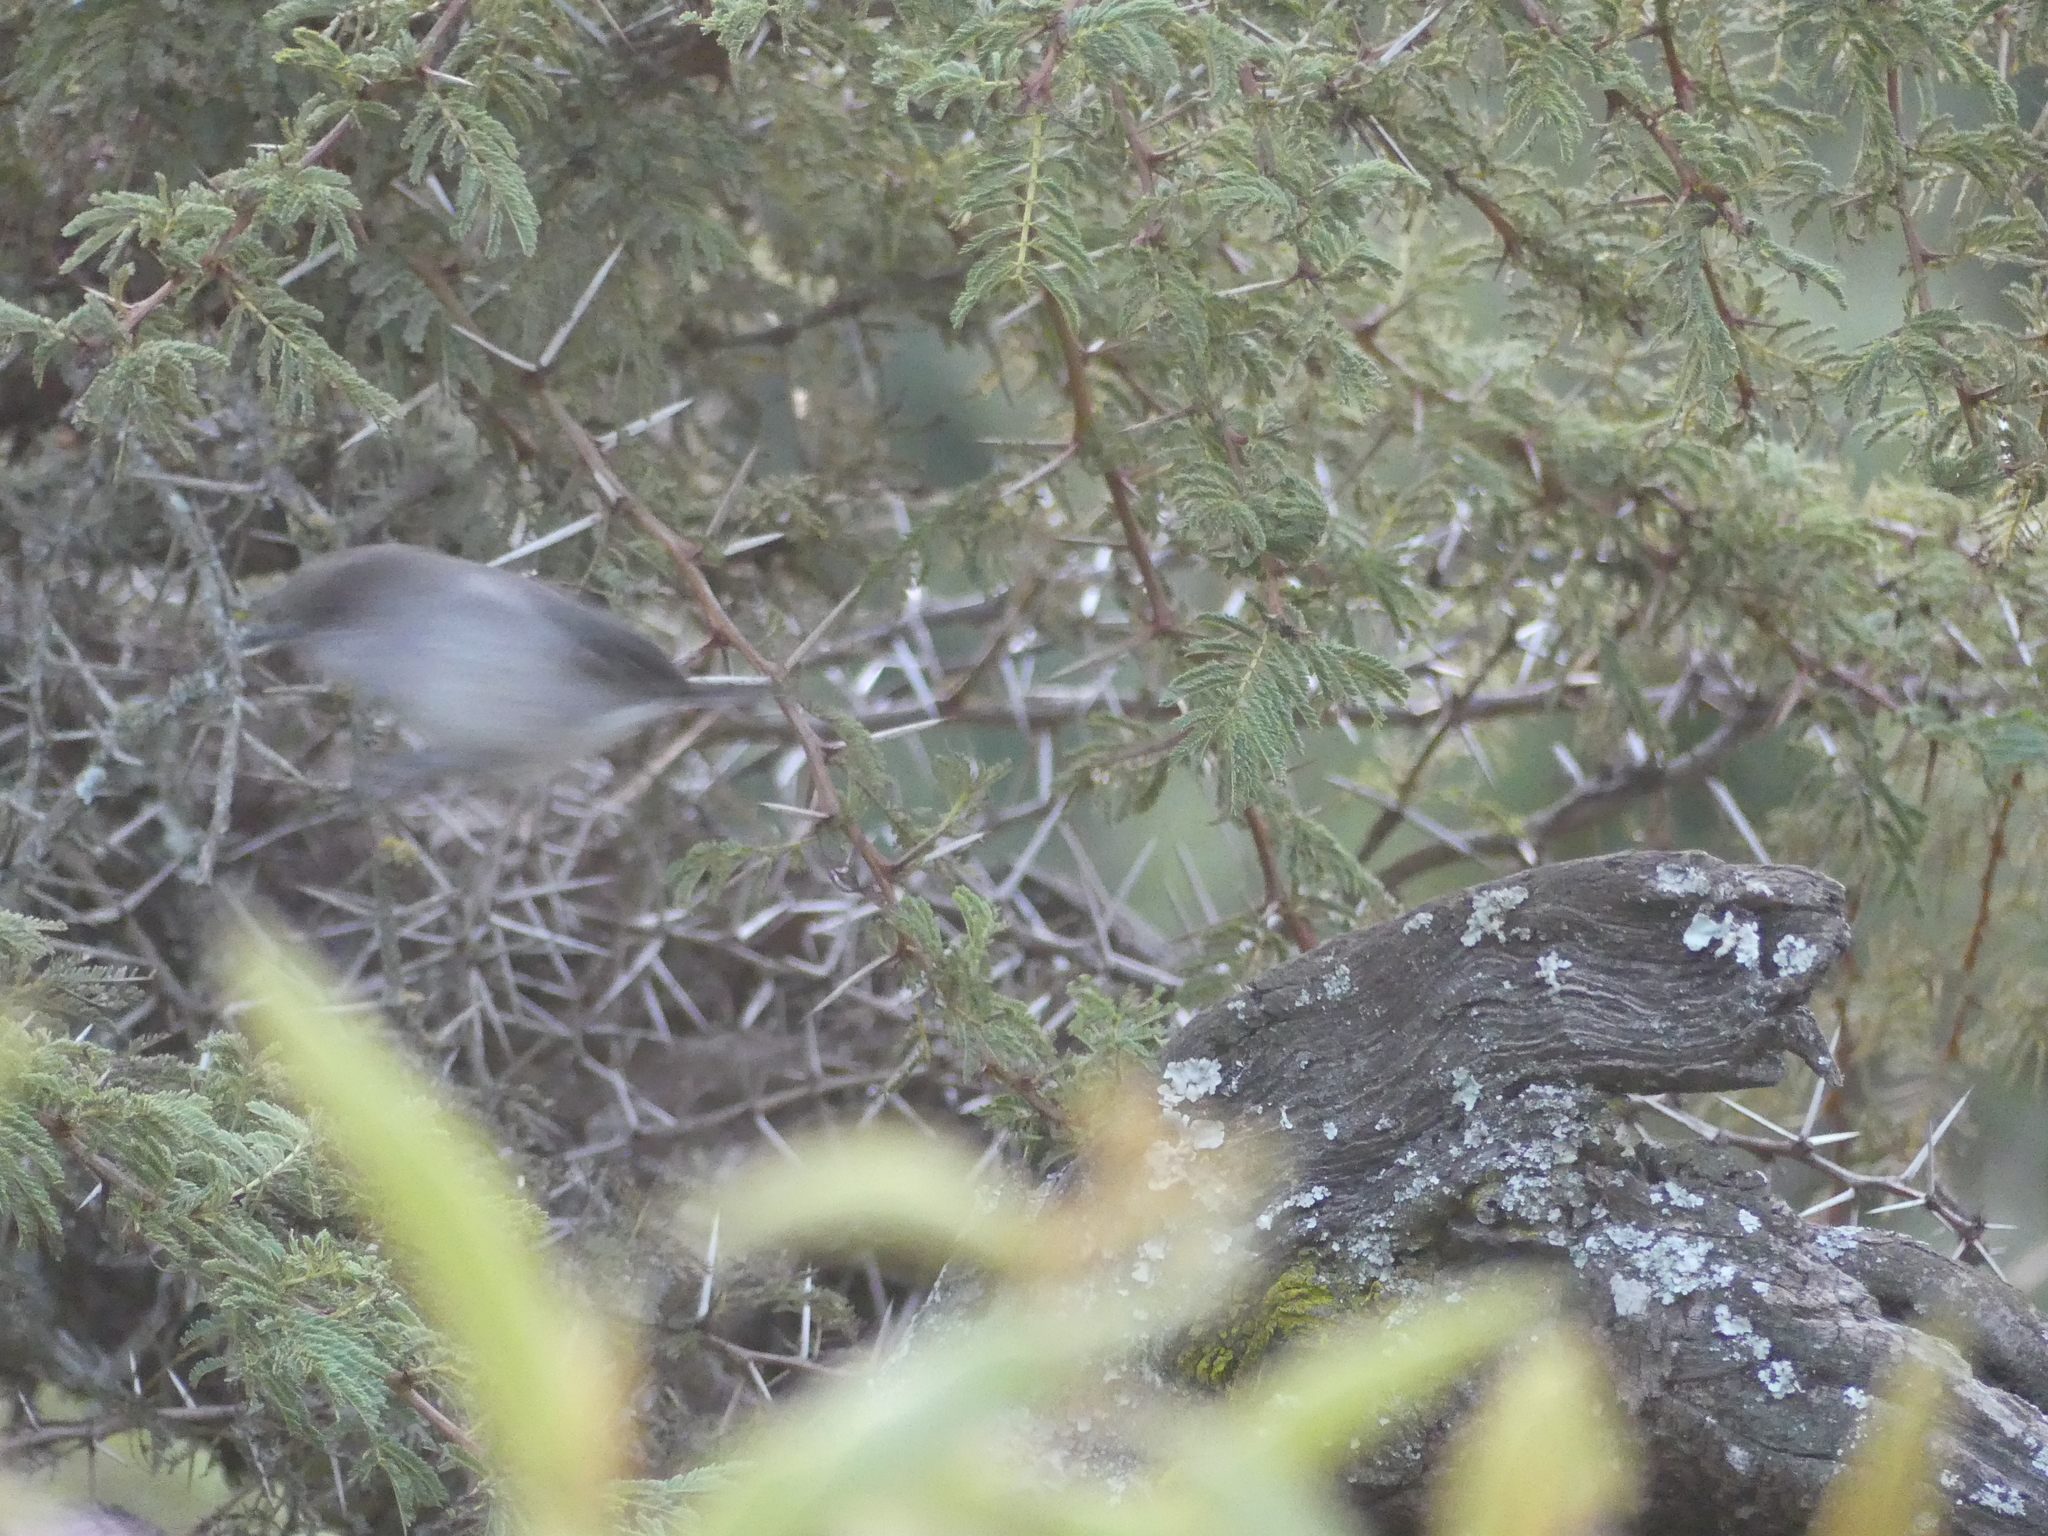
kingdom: Animalia
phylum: Chordata
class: Aves
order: Passeriformes
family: Sylviidae
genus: Sylvia
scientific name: Sylvia lugens
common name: Brown parisoma
